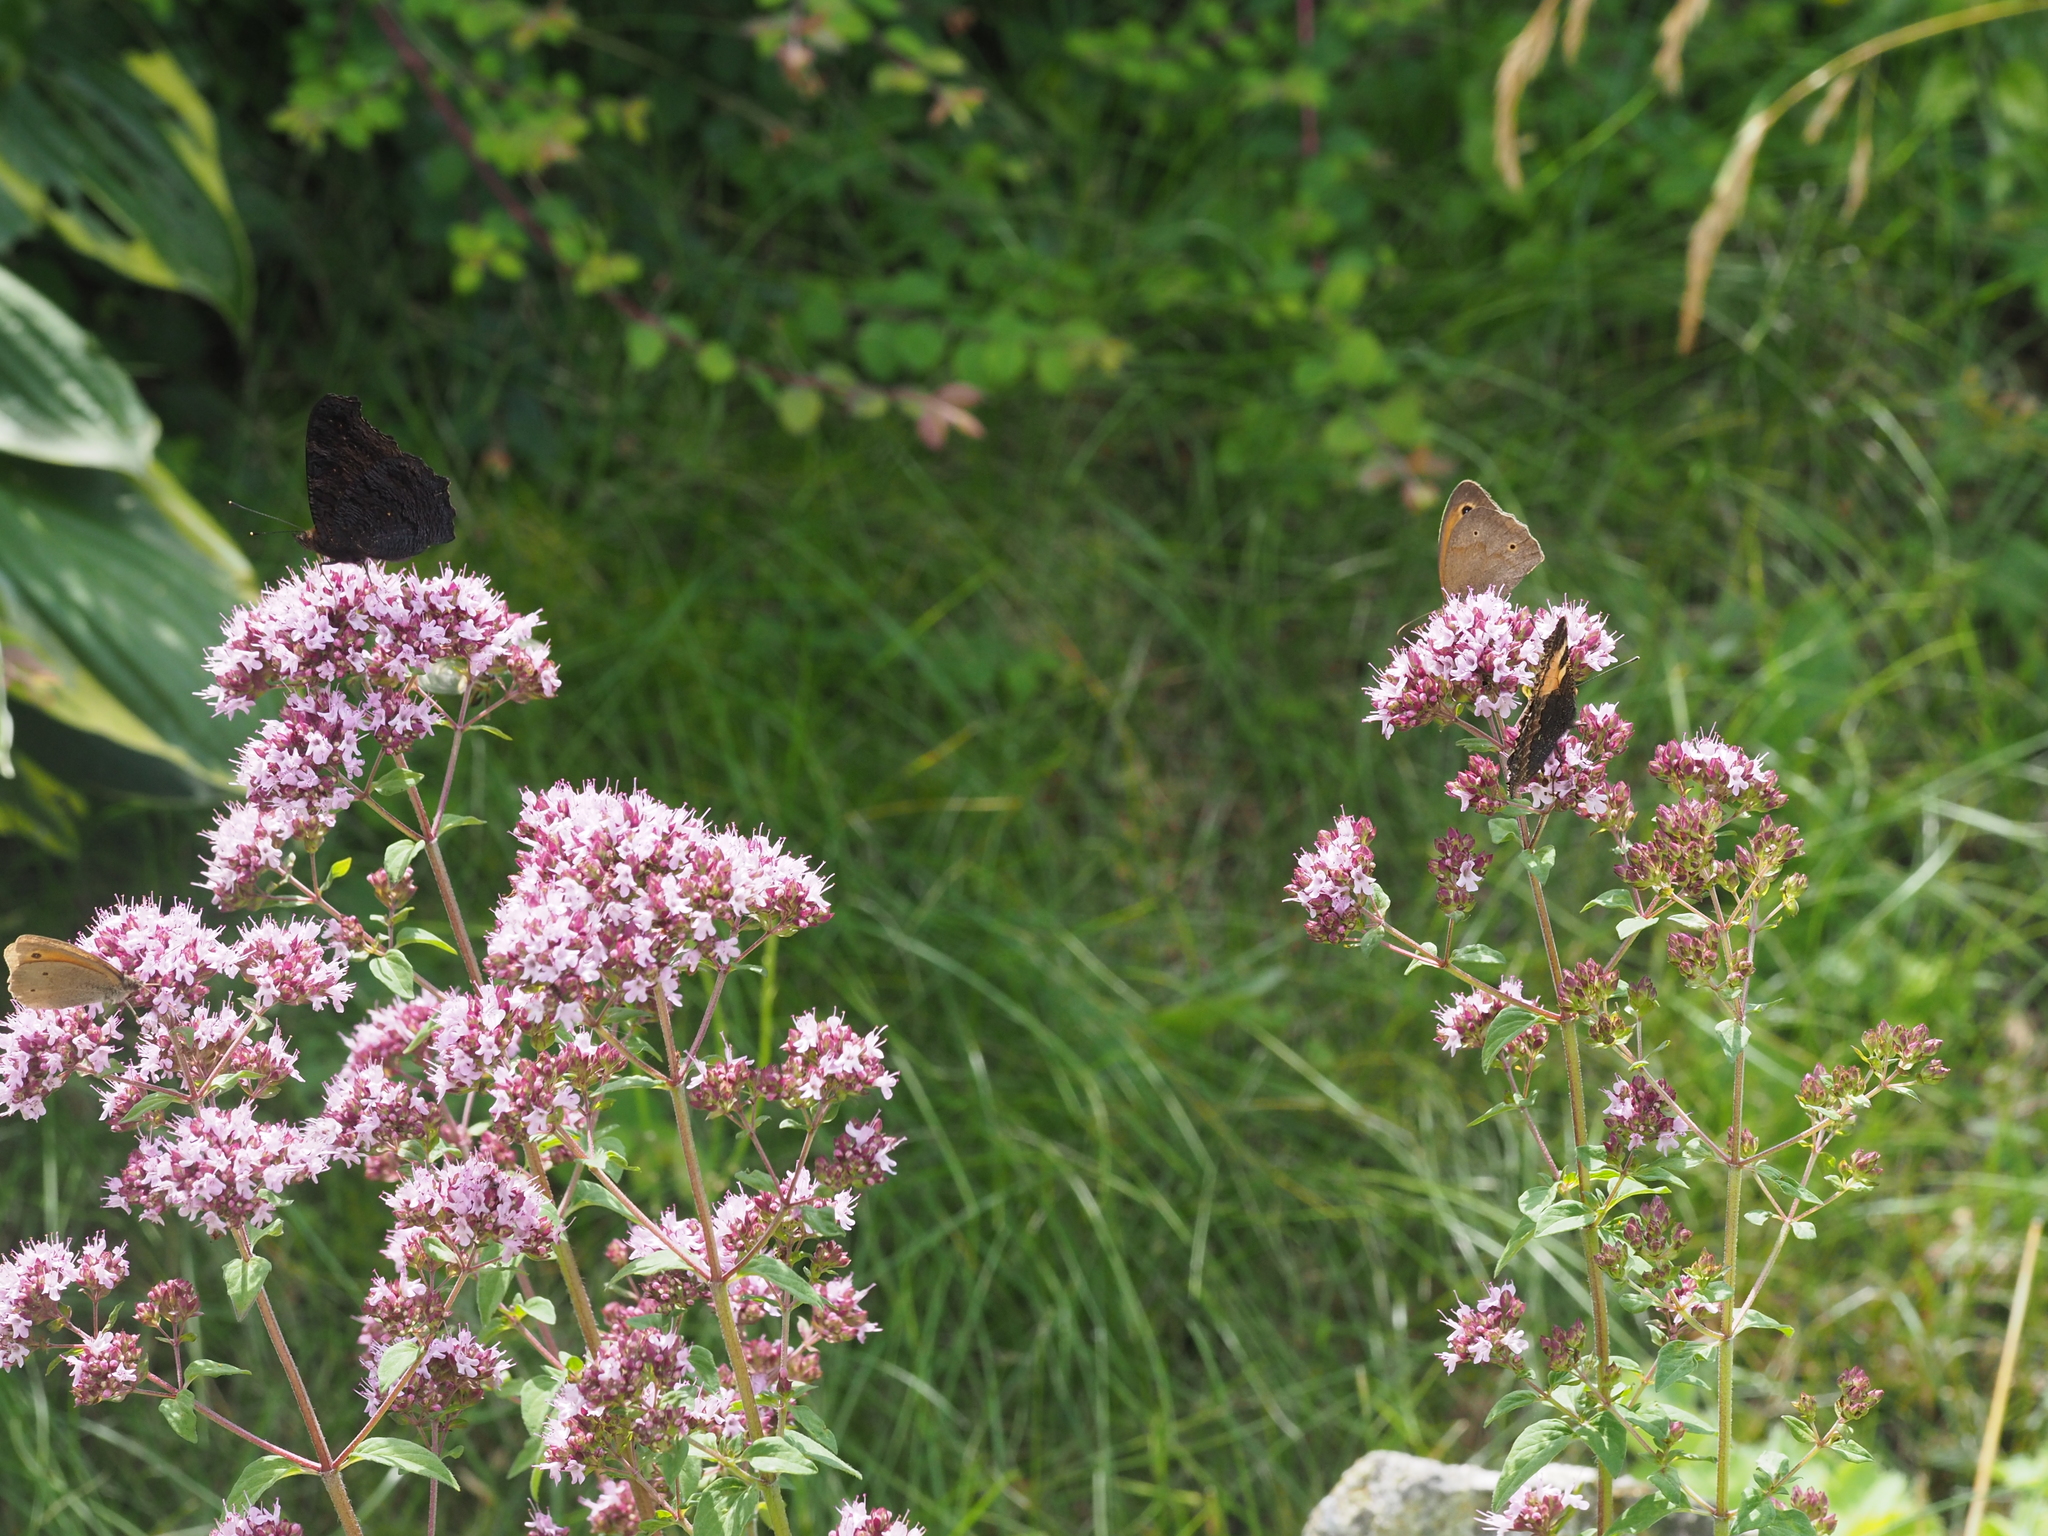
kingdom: Animalia
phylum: Arthropoda
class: Insecta
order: Lepidoptera
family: Nymphalidae
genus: Aglais
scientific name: Aglais io
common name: Peacock
